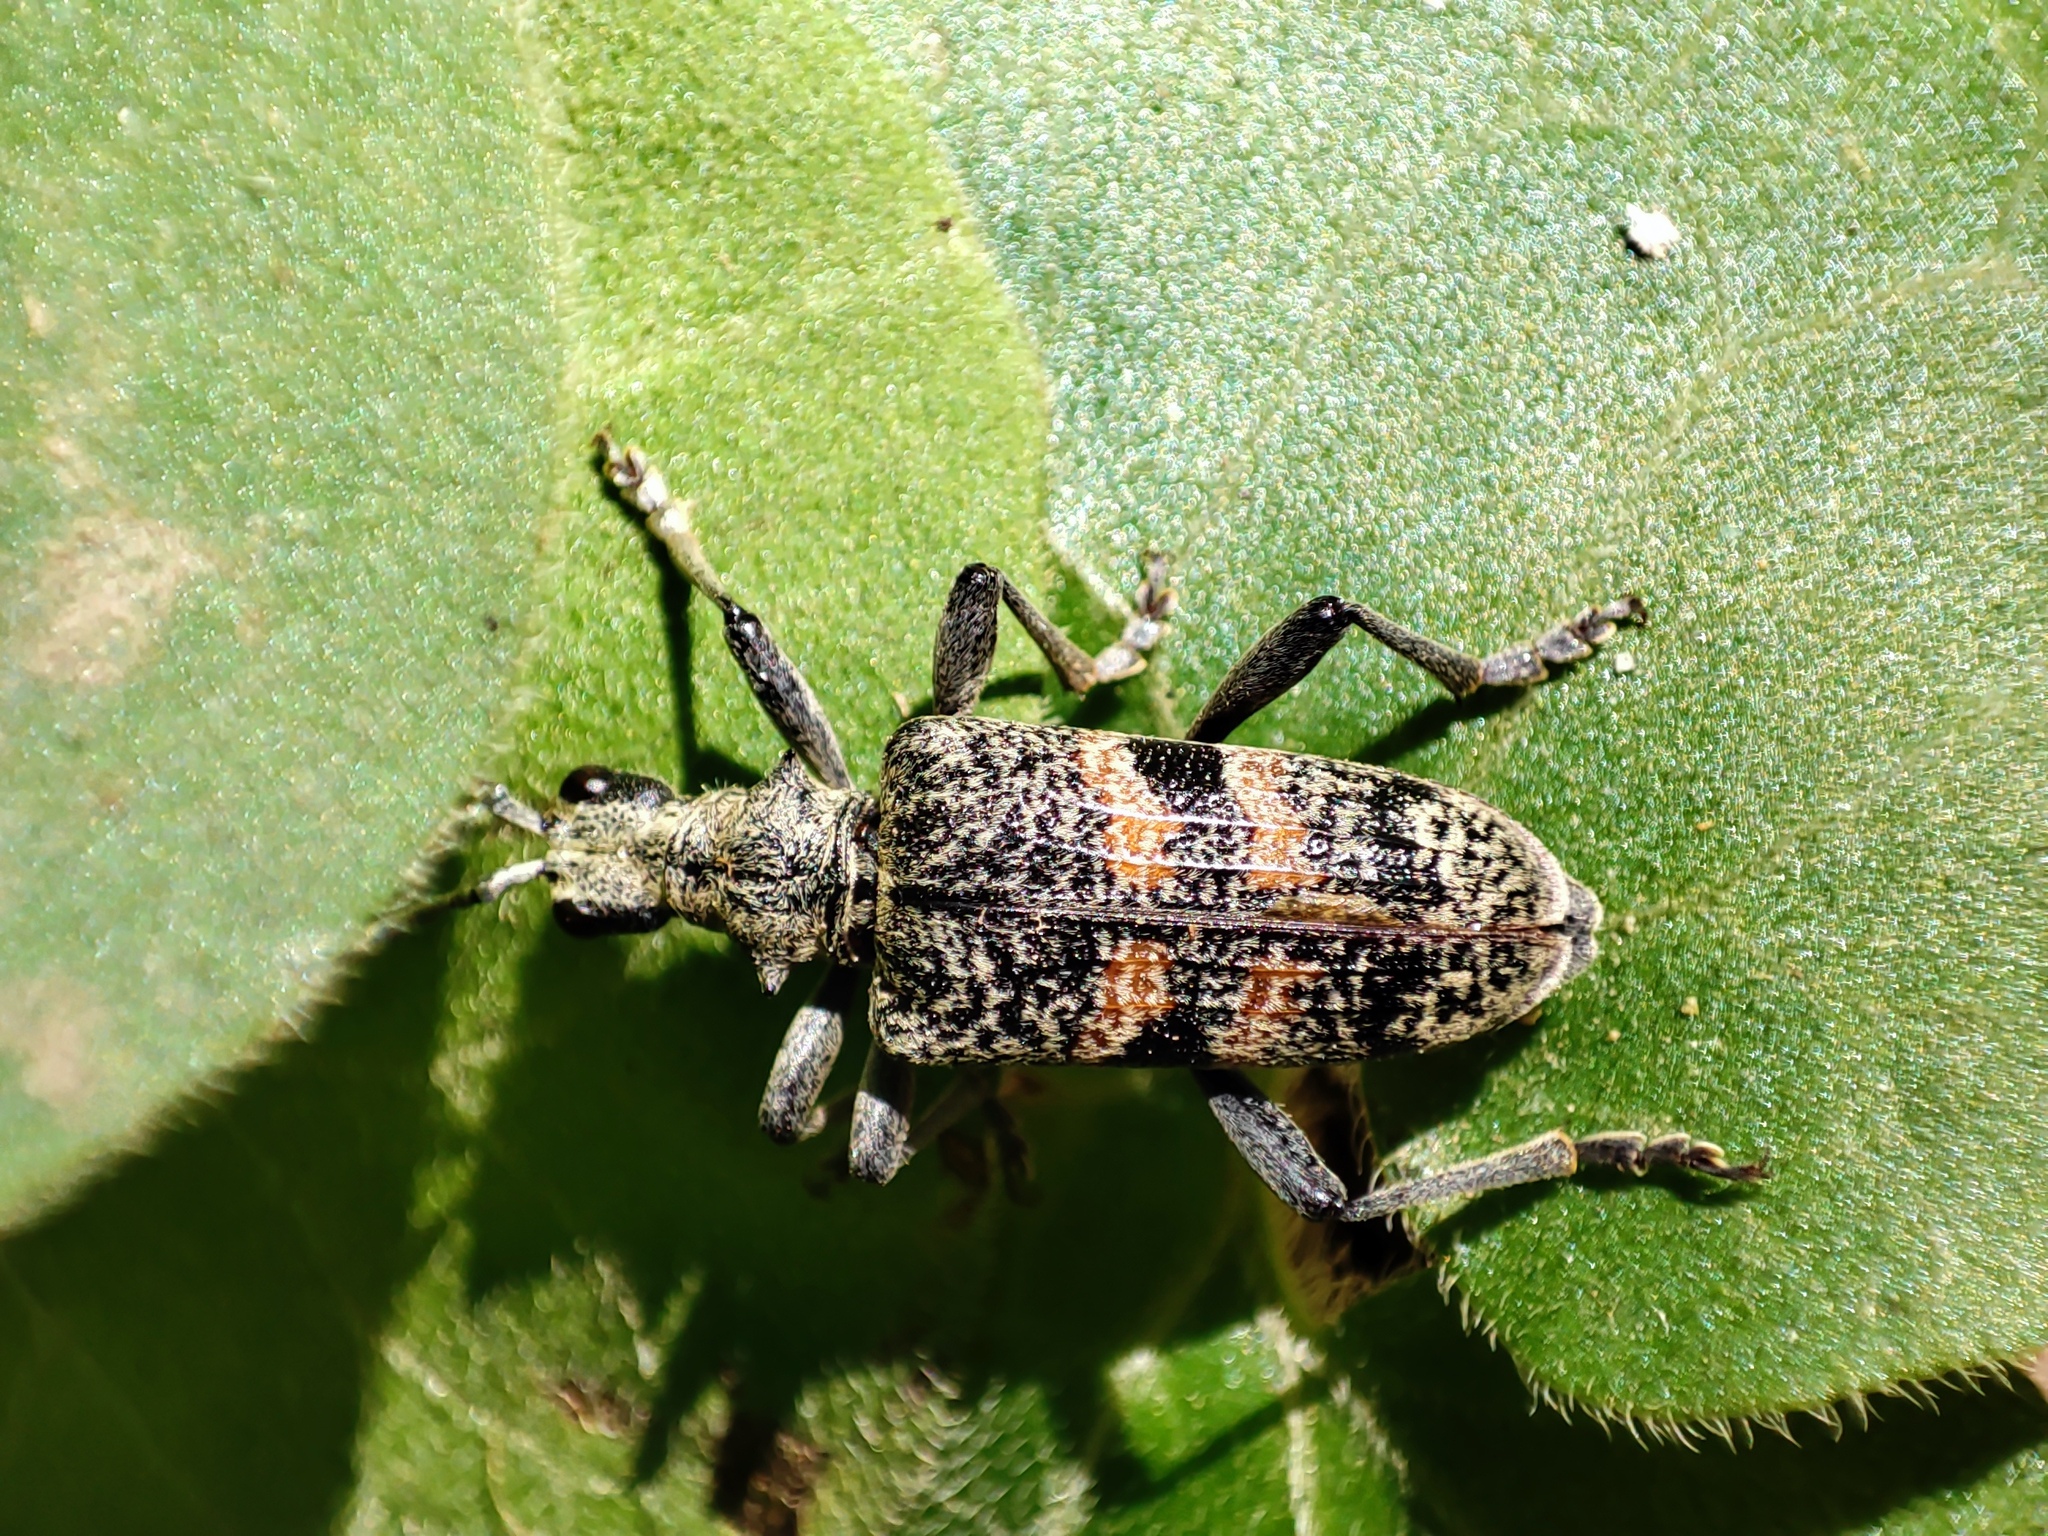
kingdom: Animalia
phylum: Arthropoda
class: Insecta
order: Coleoptera
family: Cerambycidae
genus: Rhagium
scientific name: Rhagium mordax
